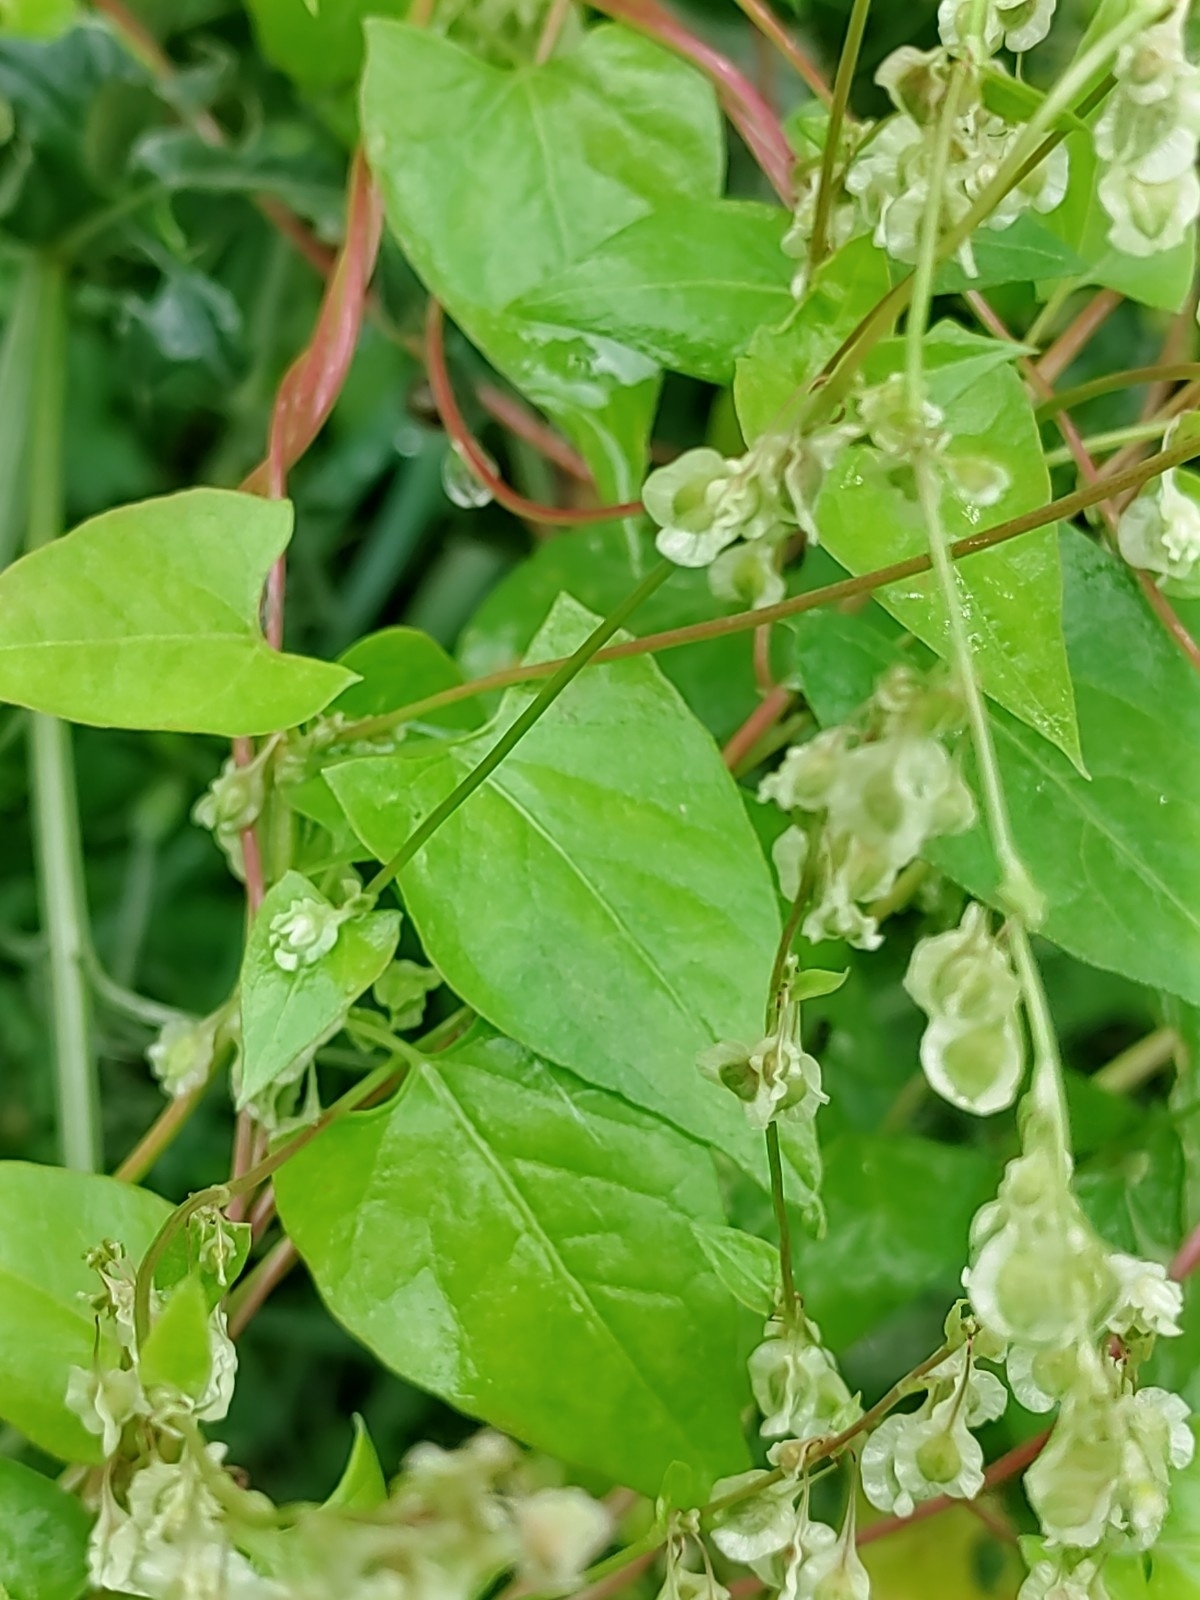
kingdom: Plantae
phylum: Tracheophyta
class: Magnoliopsida
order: Caryophyllales
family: Polygonaceae
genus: Fallopia
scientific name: Fallopia dumetorum
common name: Copse-bindweed
